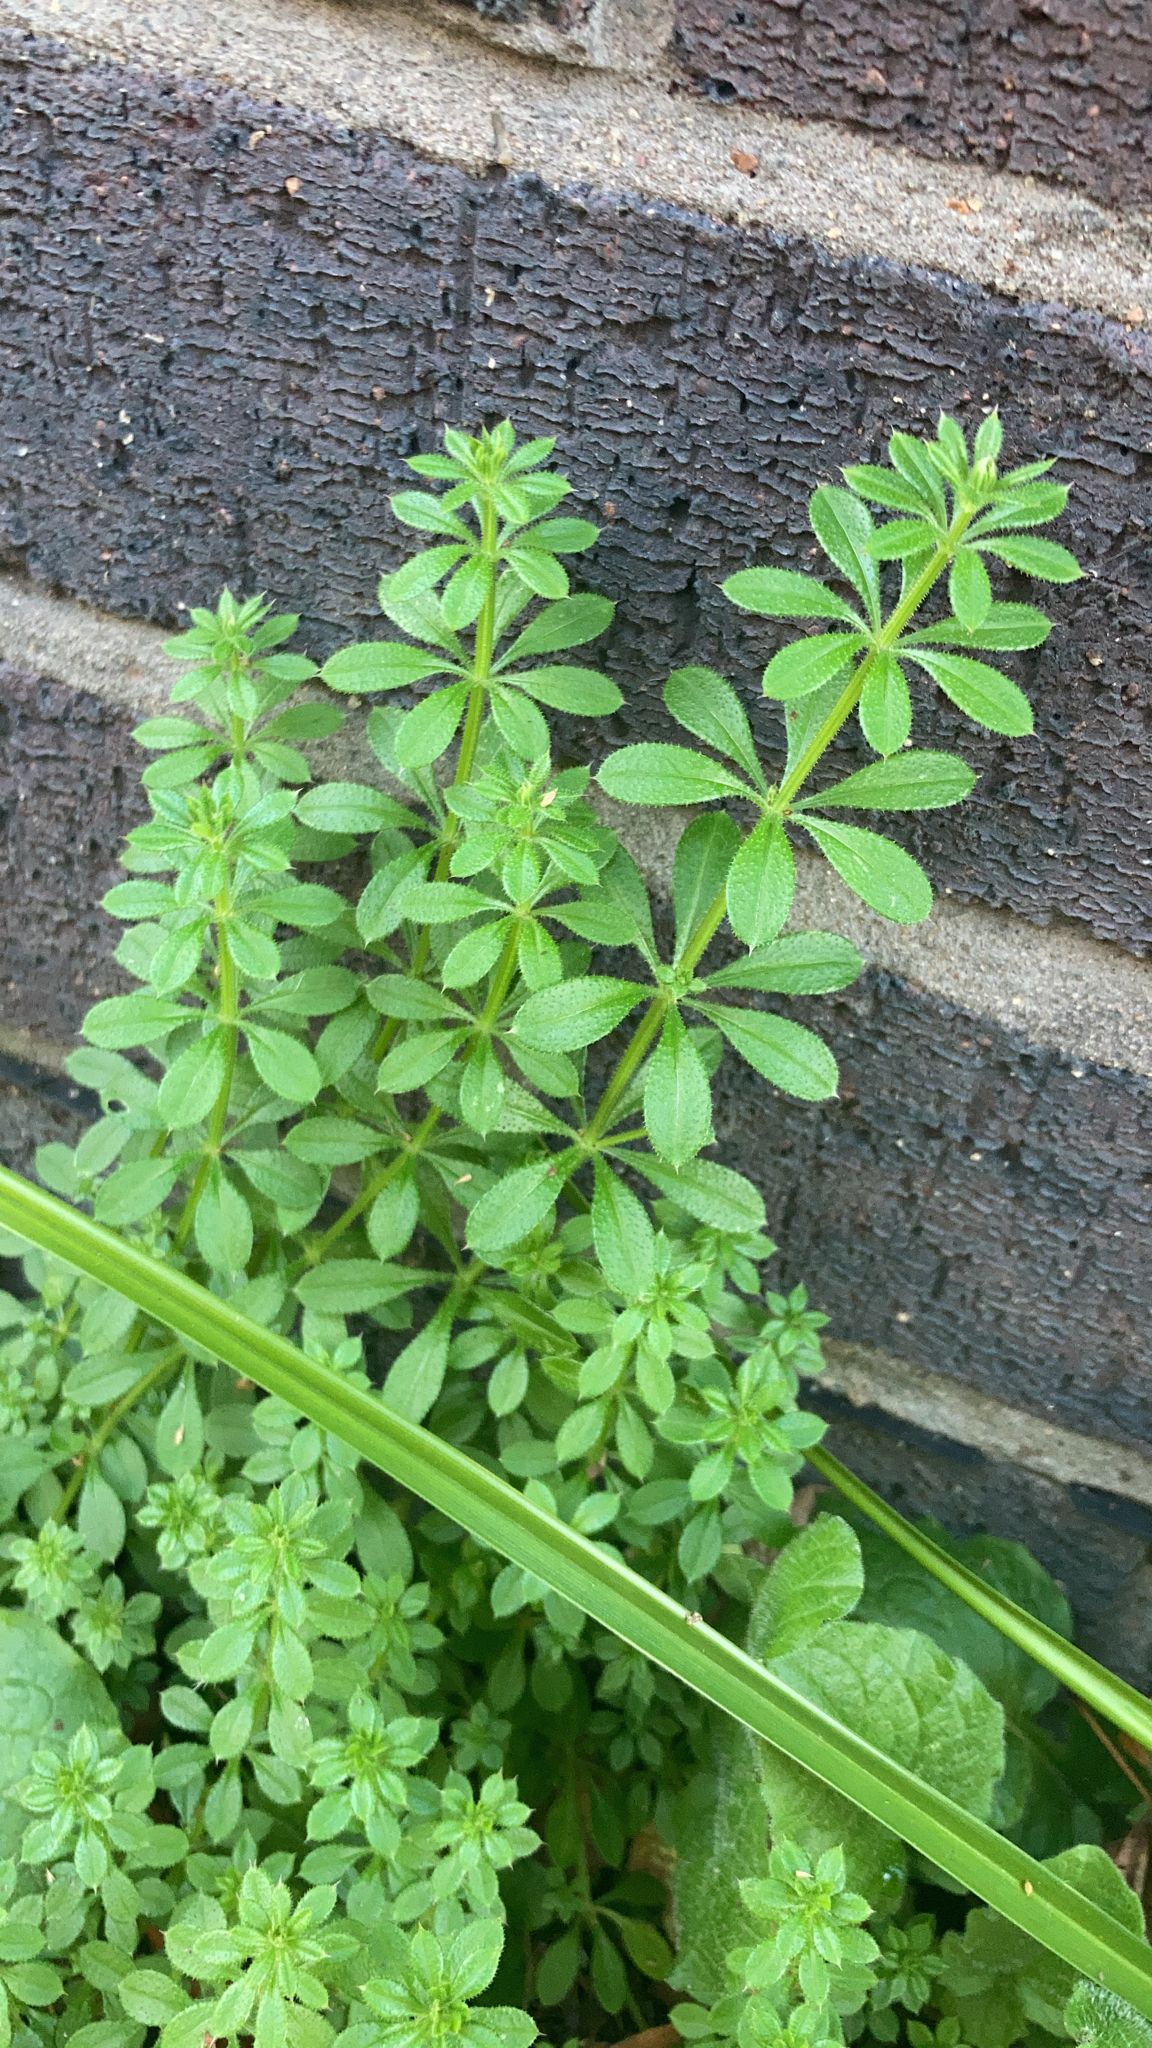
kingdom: Plantae
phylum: Tracheophyta
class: Magnoliopsida
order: Gentianales
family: Rubiaceae
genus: Galium
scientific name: Galium aparine
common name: Cleavers
